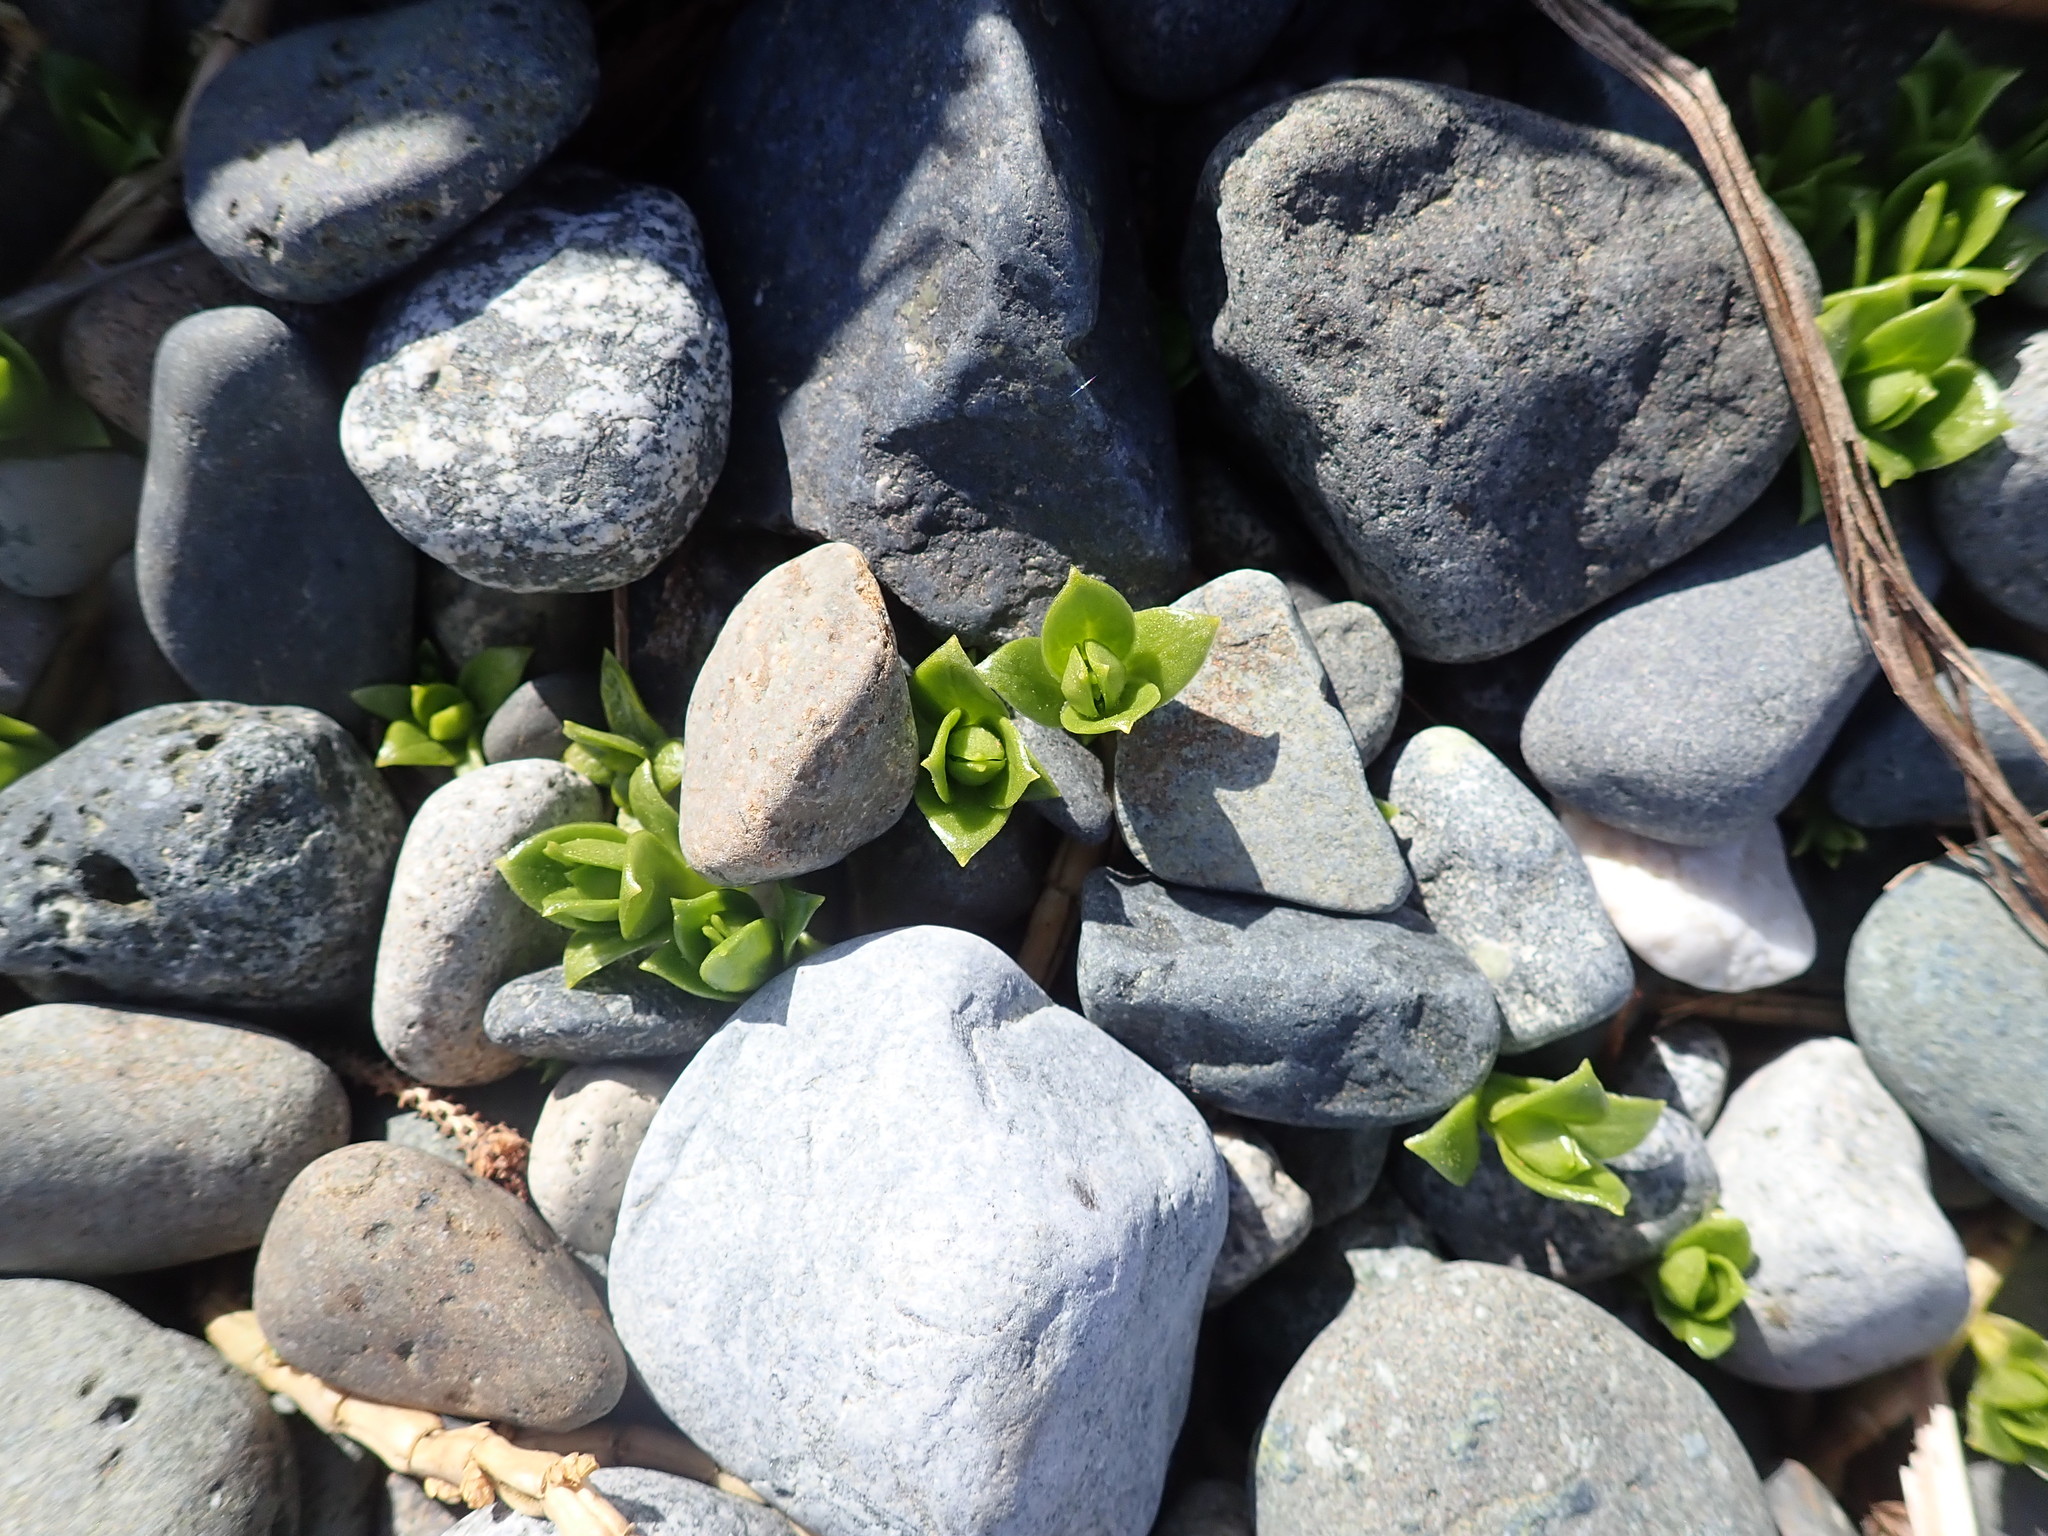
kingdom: Plantae
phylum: Tracheophyta
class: Magnoliopsida
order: Caryophyllales
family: Caryophyllaceae
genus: Honckenya
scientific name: Honckenya peploides
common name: Sea sandwort
